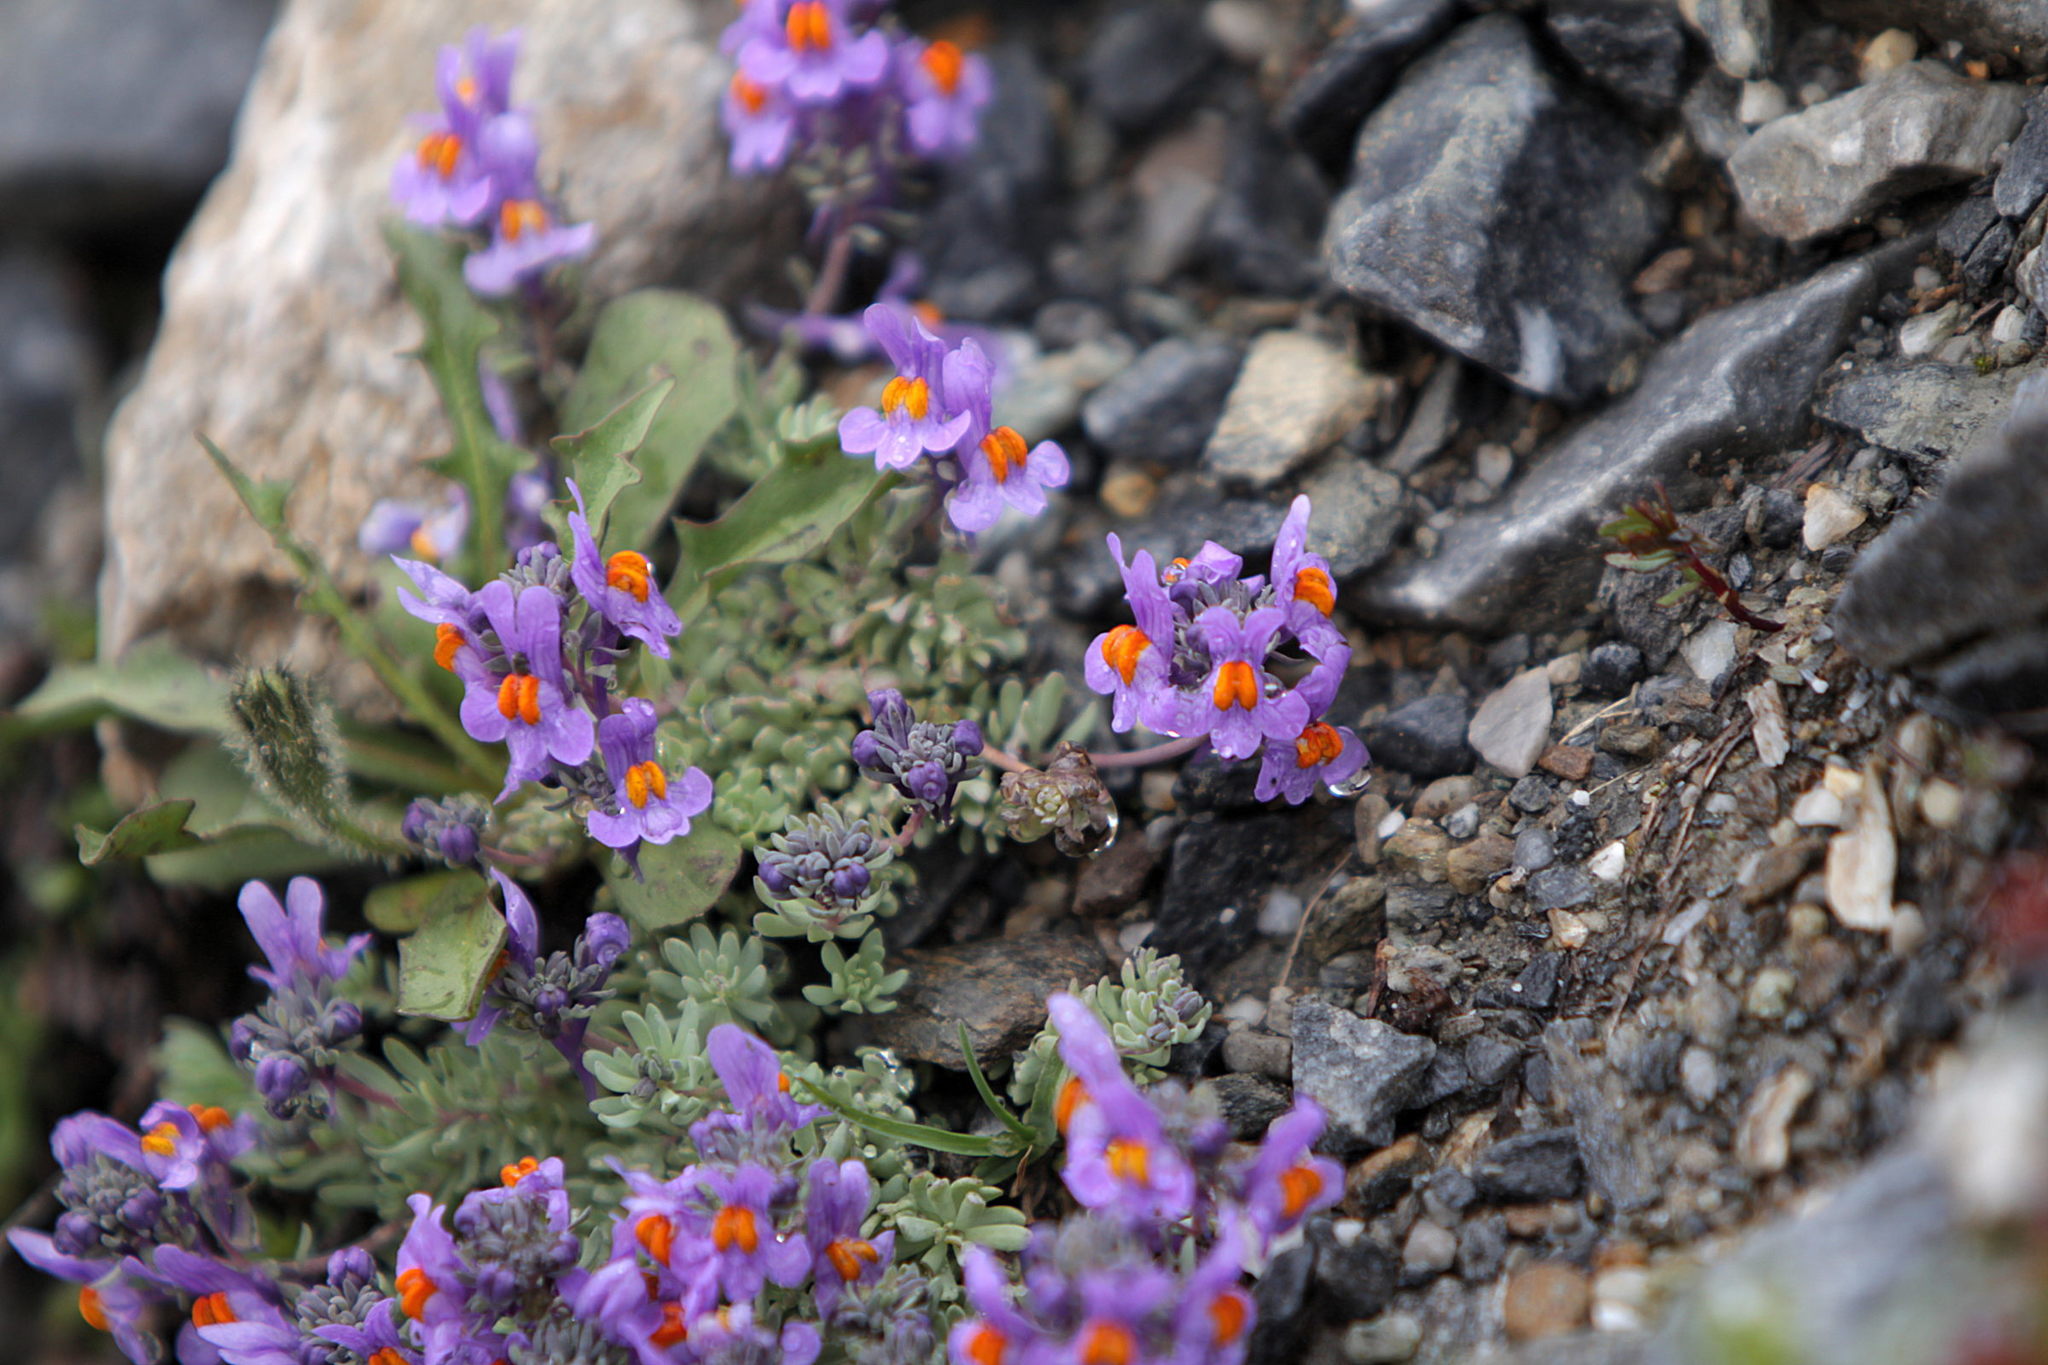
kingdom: Plantae
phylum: Tracheophyta
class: Magnoliopsida
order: Lamiales
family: Plantaginaceae
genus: Linaria
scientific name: Linaria alpina
